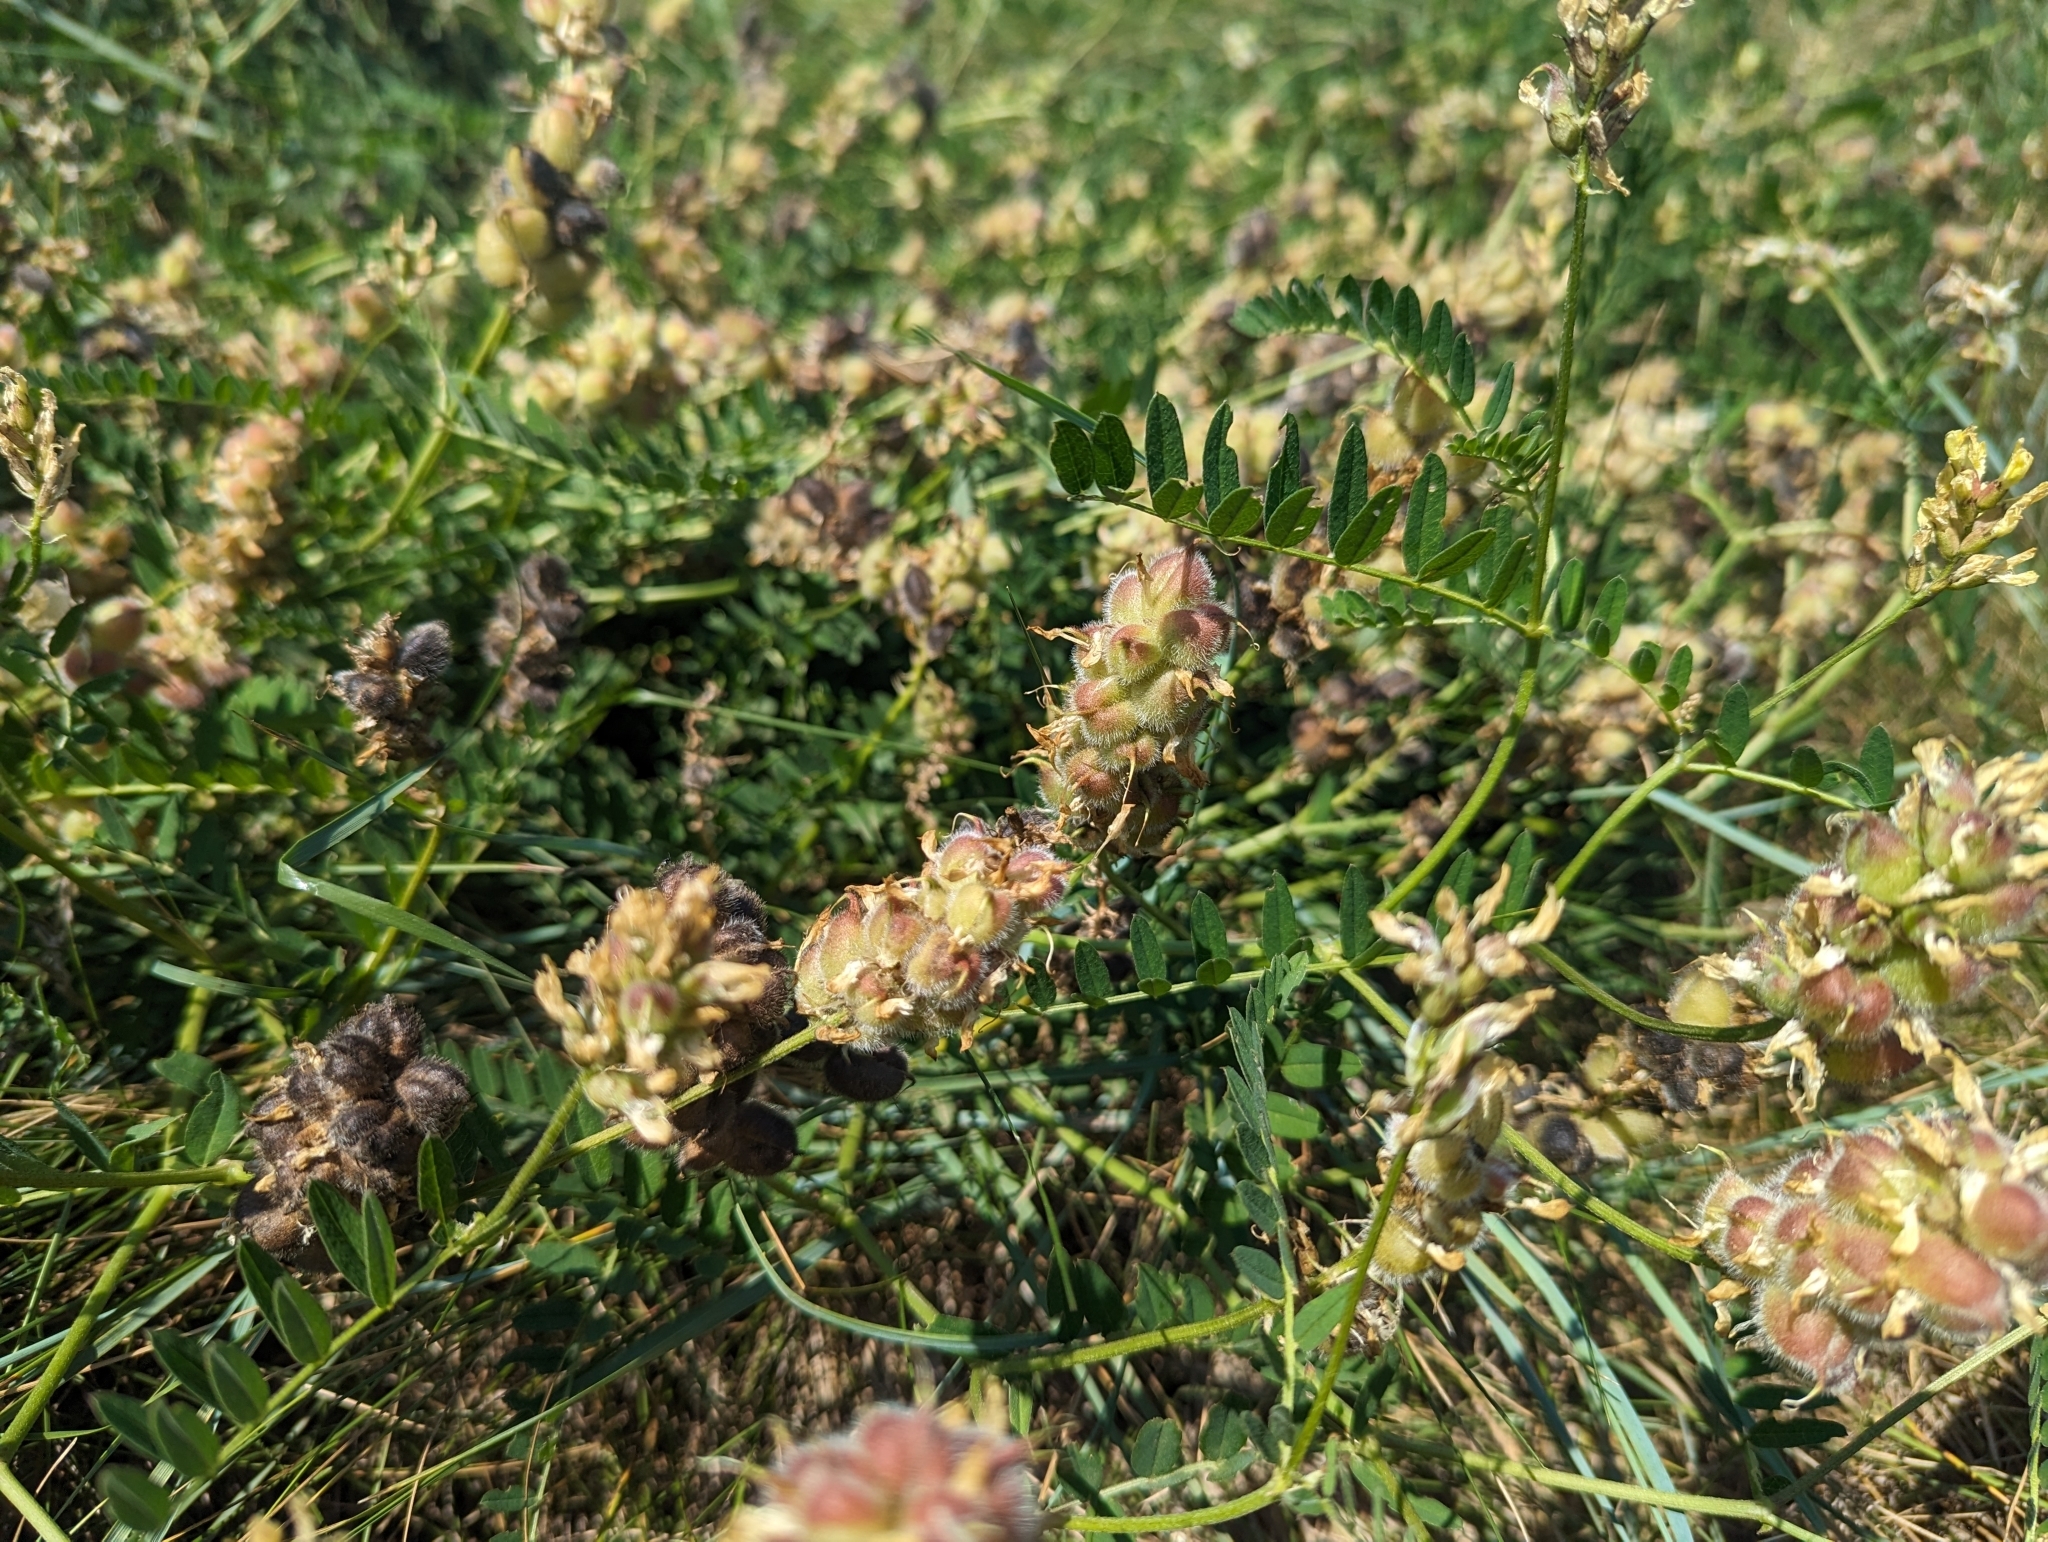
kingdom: Plantae
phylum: Tracheophyta
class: Magnoliopsida
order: Fabales
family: Fabaceae
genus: Astragalus
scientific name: Astragalus cicer
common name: Chick-pea milk-vetch
